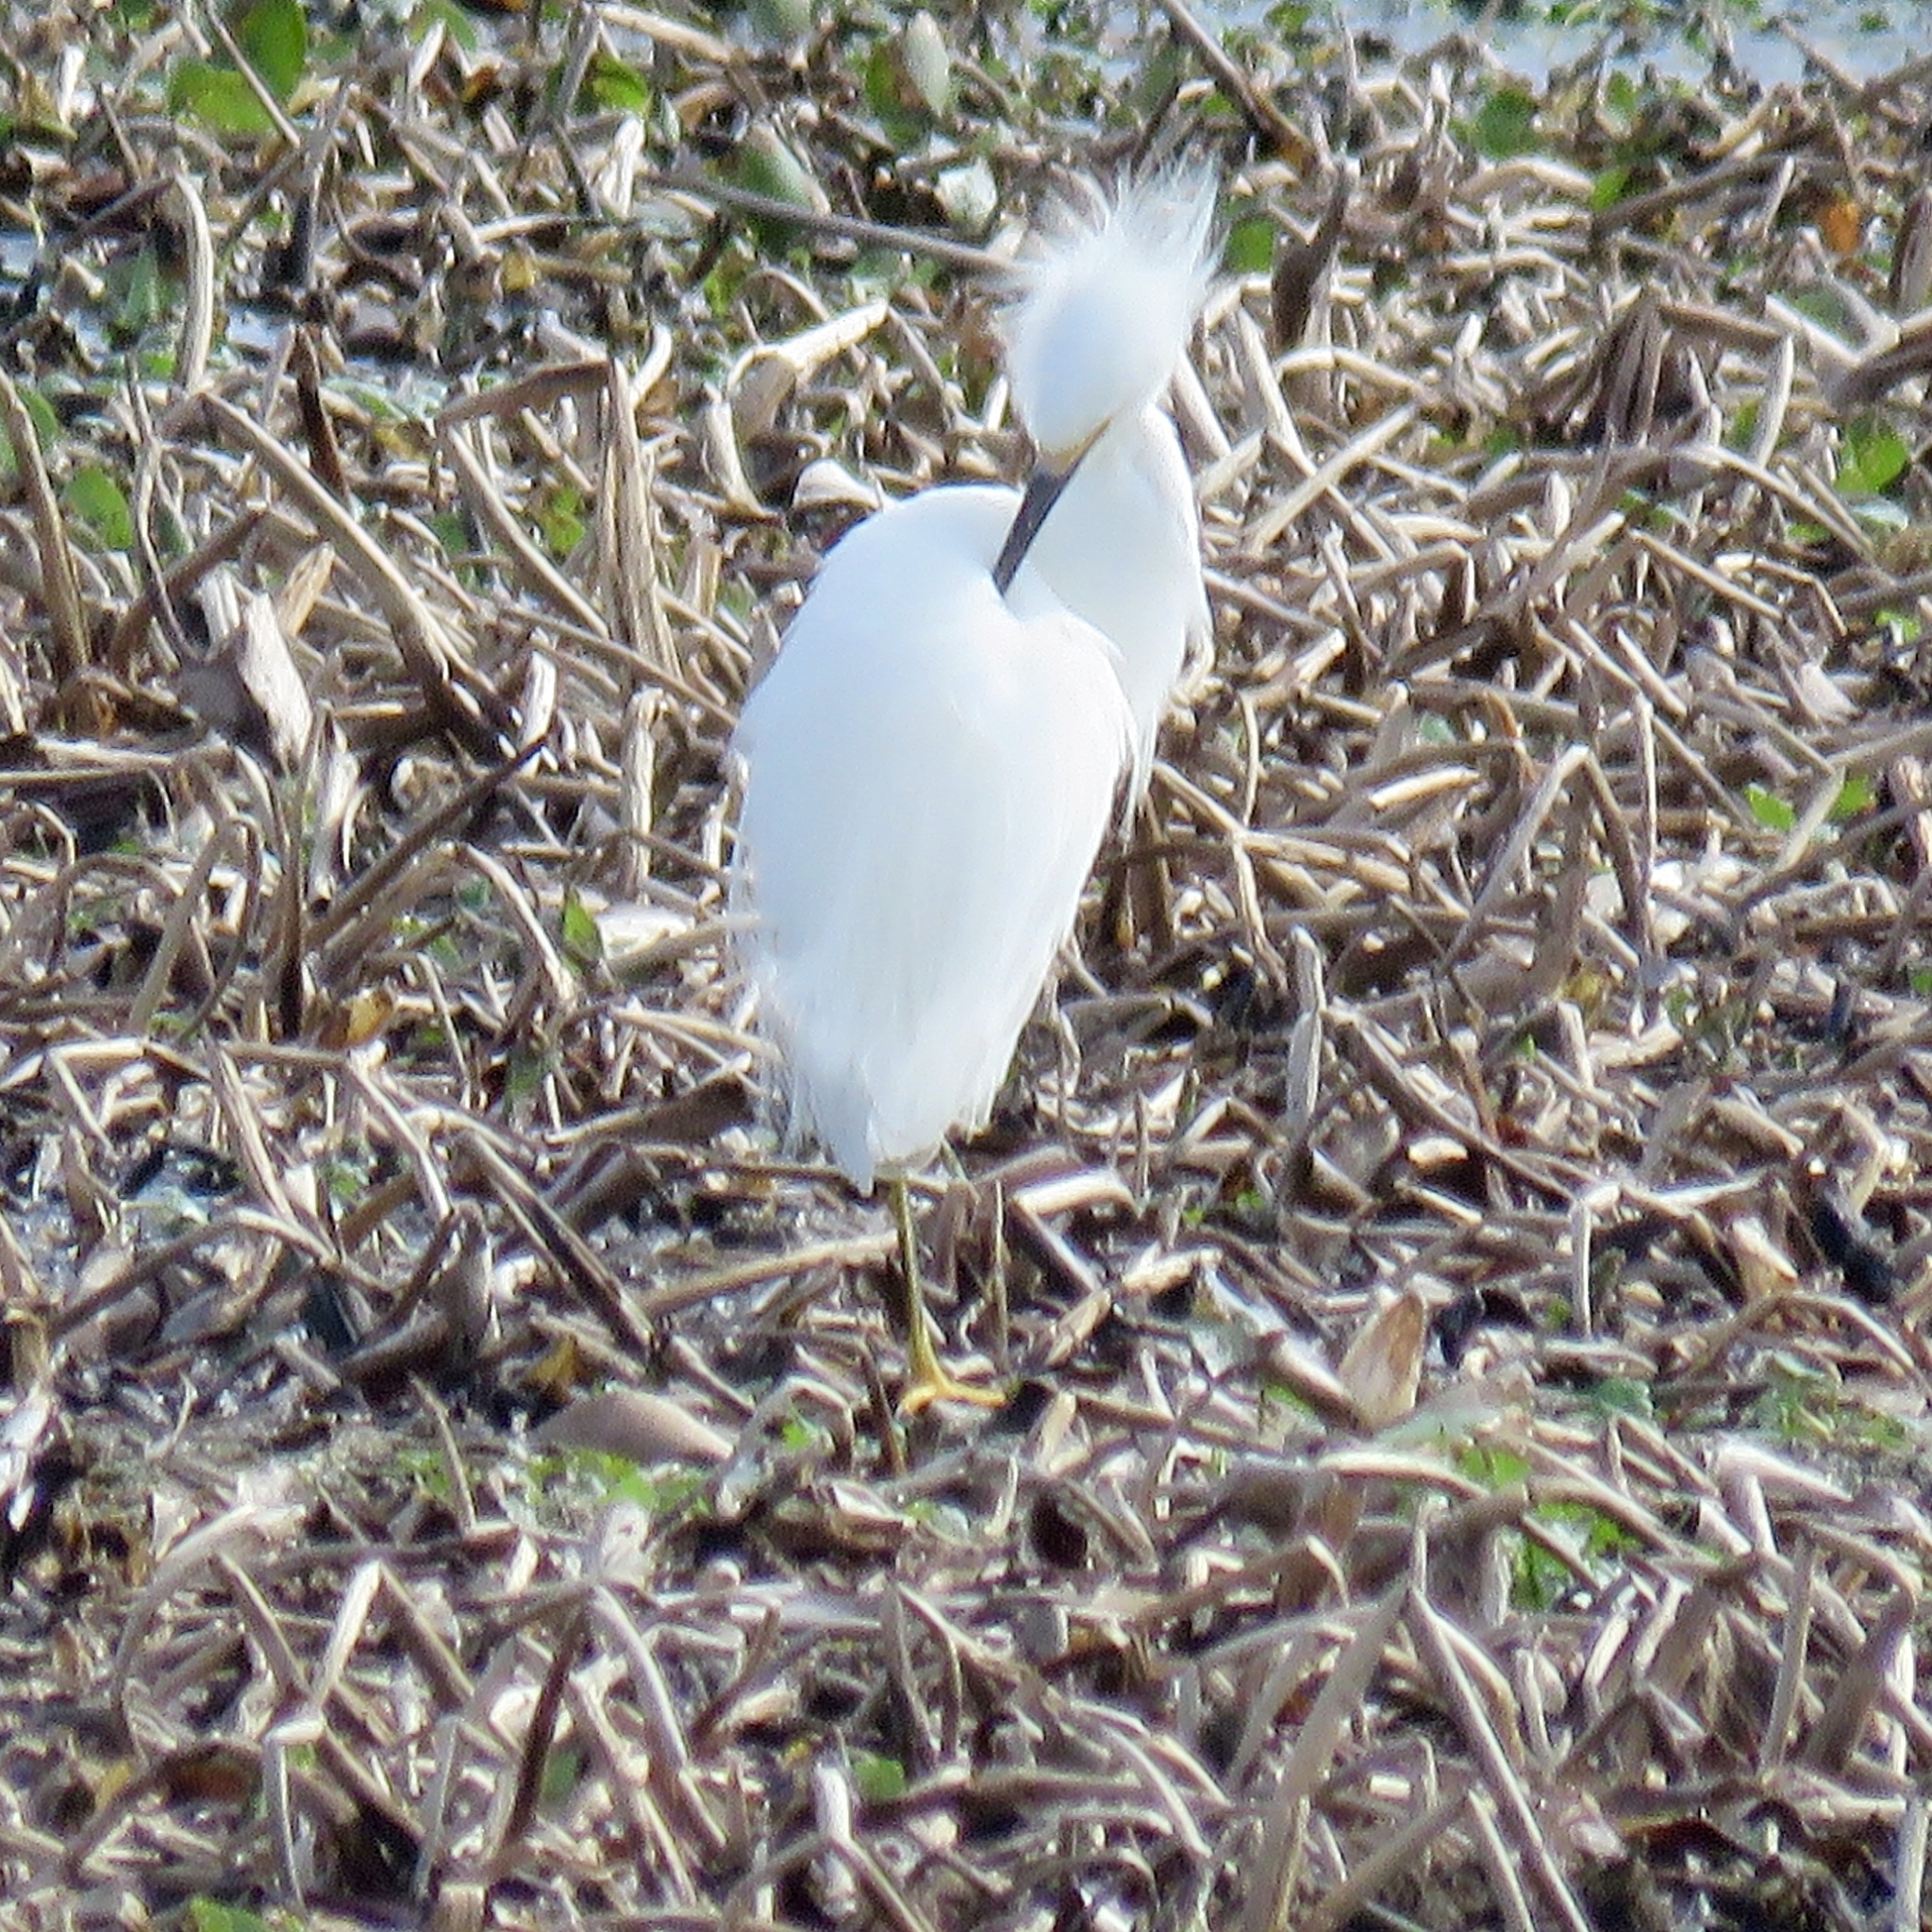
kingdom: Animalia
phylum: Chordata
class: Aves
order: Pelecaniformes
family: Ardeidae
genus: Egretta
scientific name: Egretta thula
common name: Snowy egret
